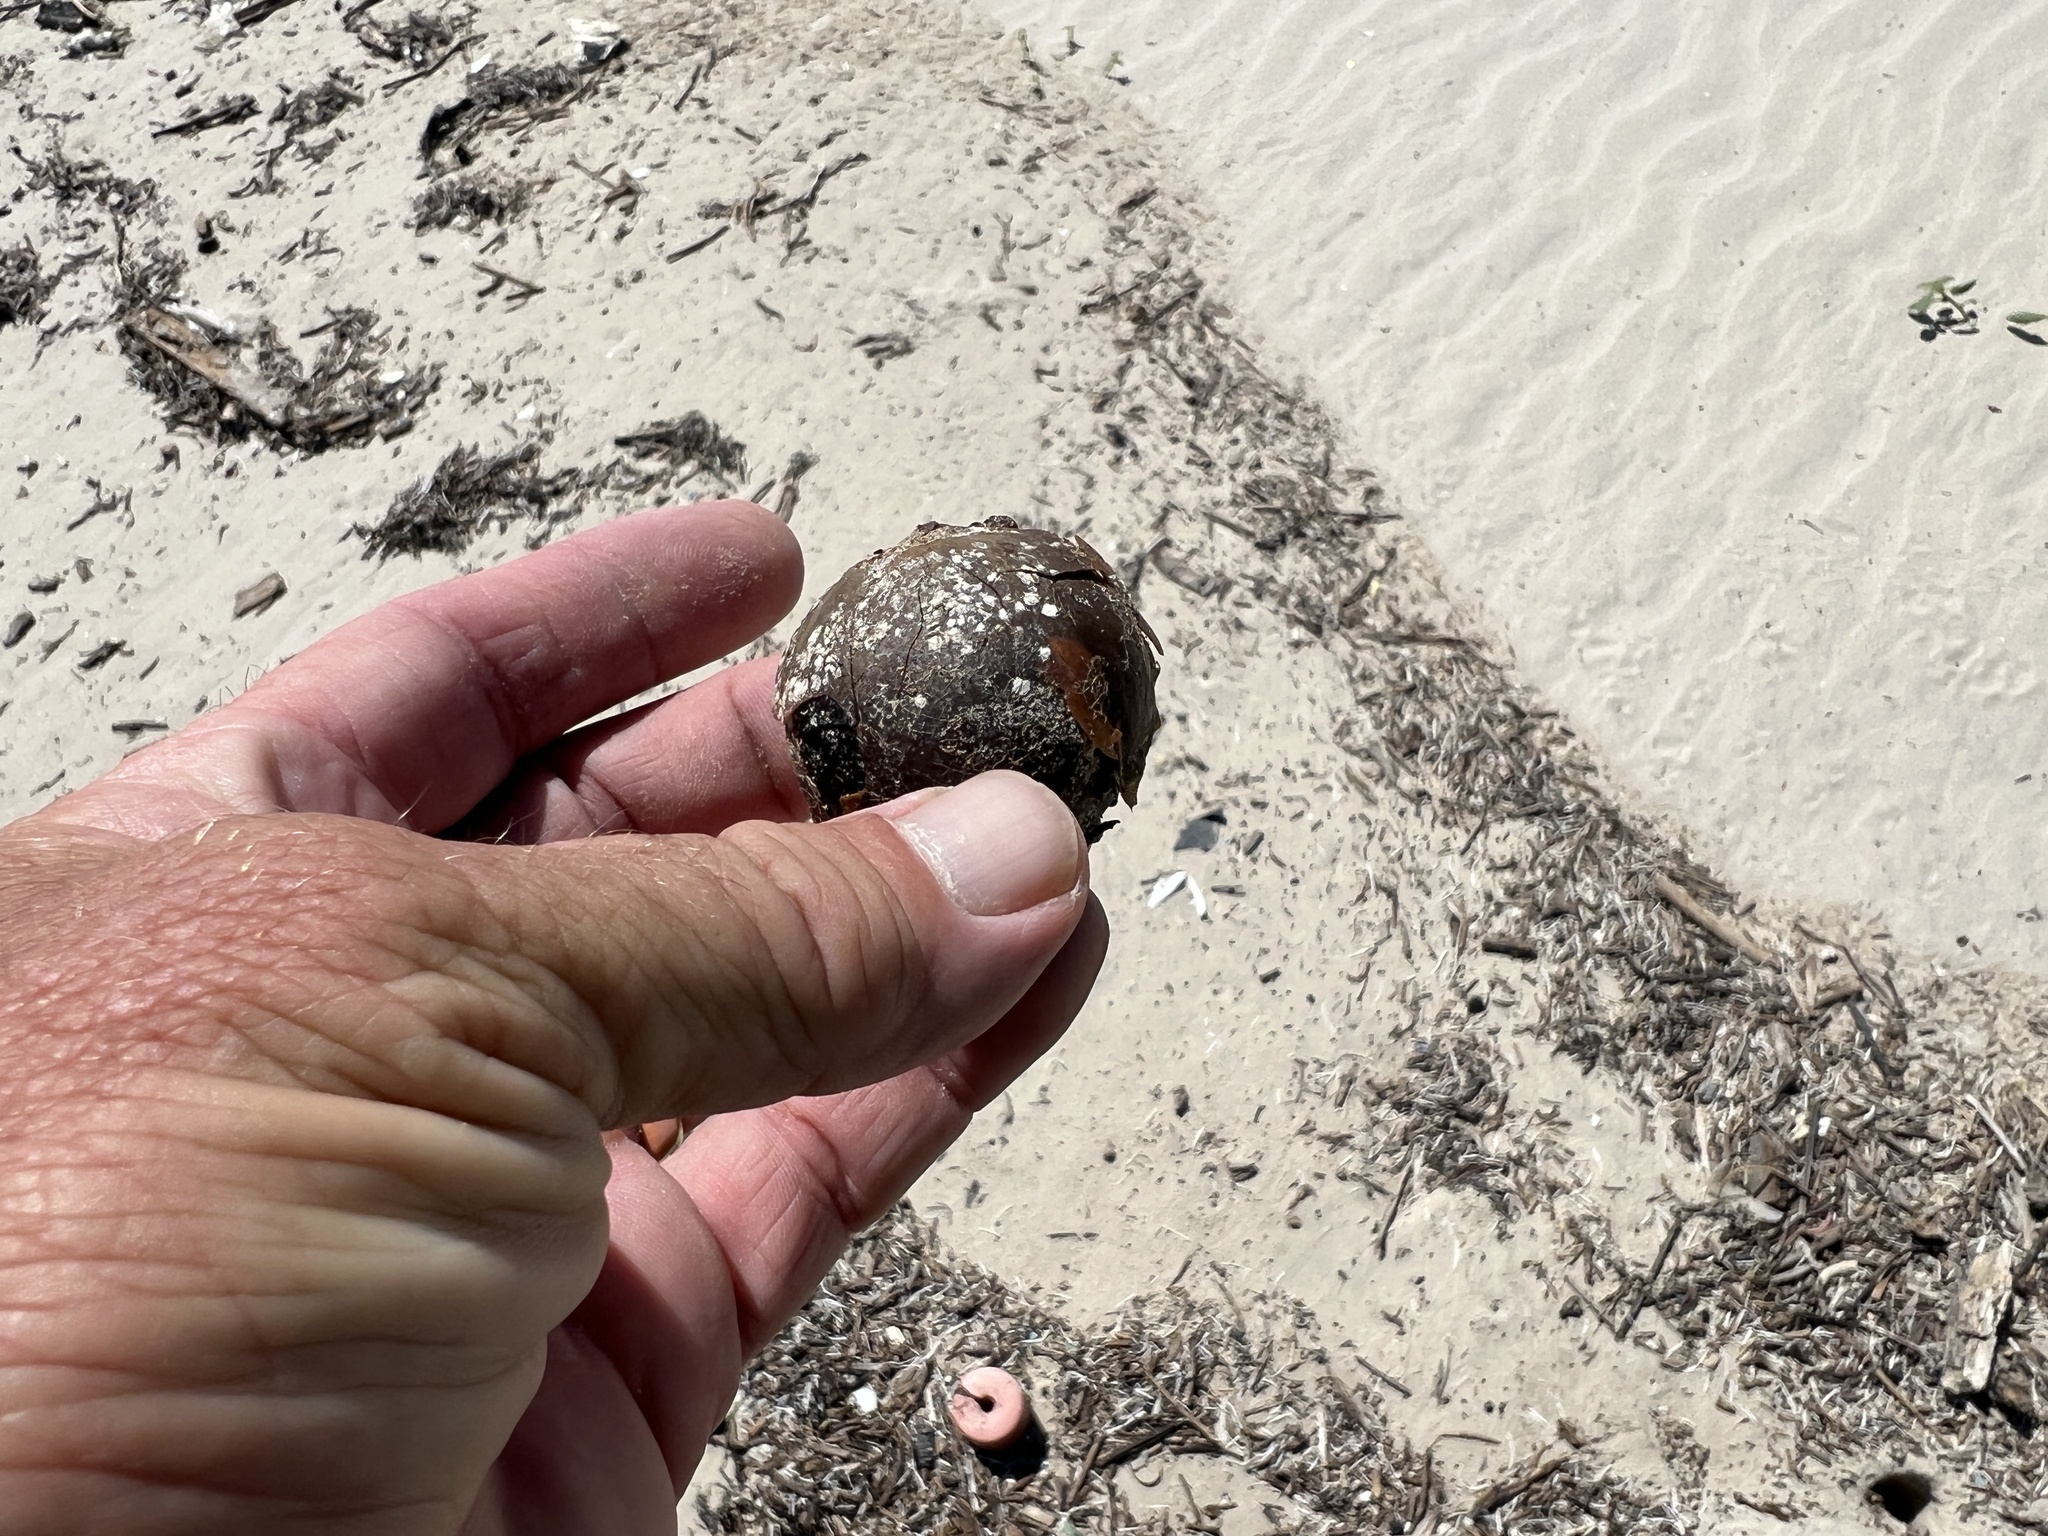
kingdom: Plantae
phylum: Tracheophyta
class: Liliopsida
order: Arecales
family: Arecaceae
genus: Manicaria
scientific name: Manicaria saccifera
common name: Sea coconut
